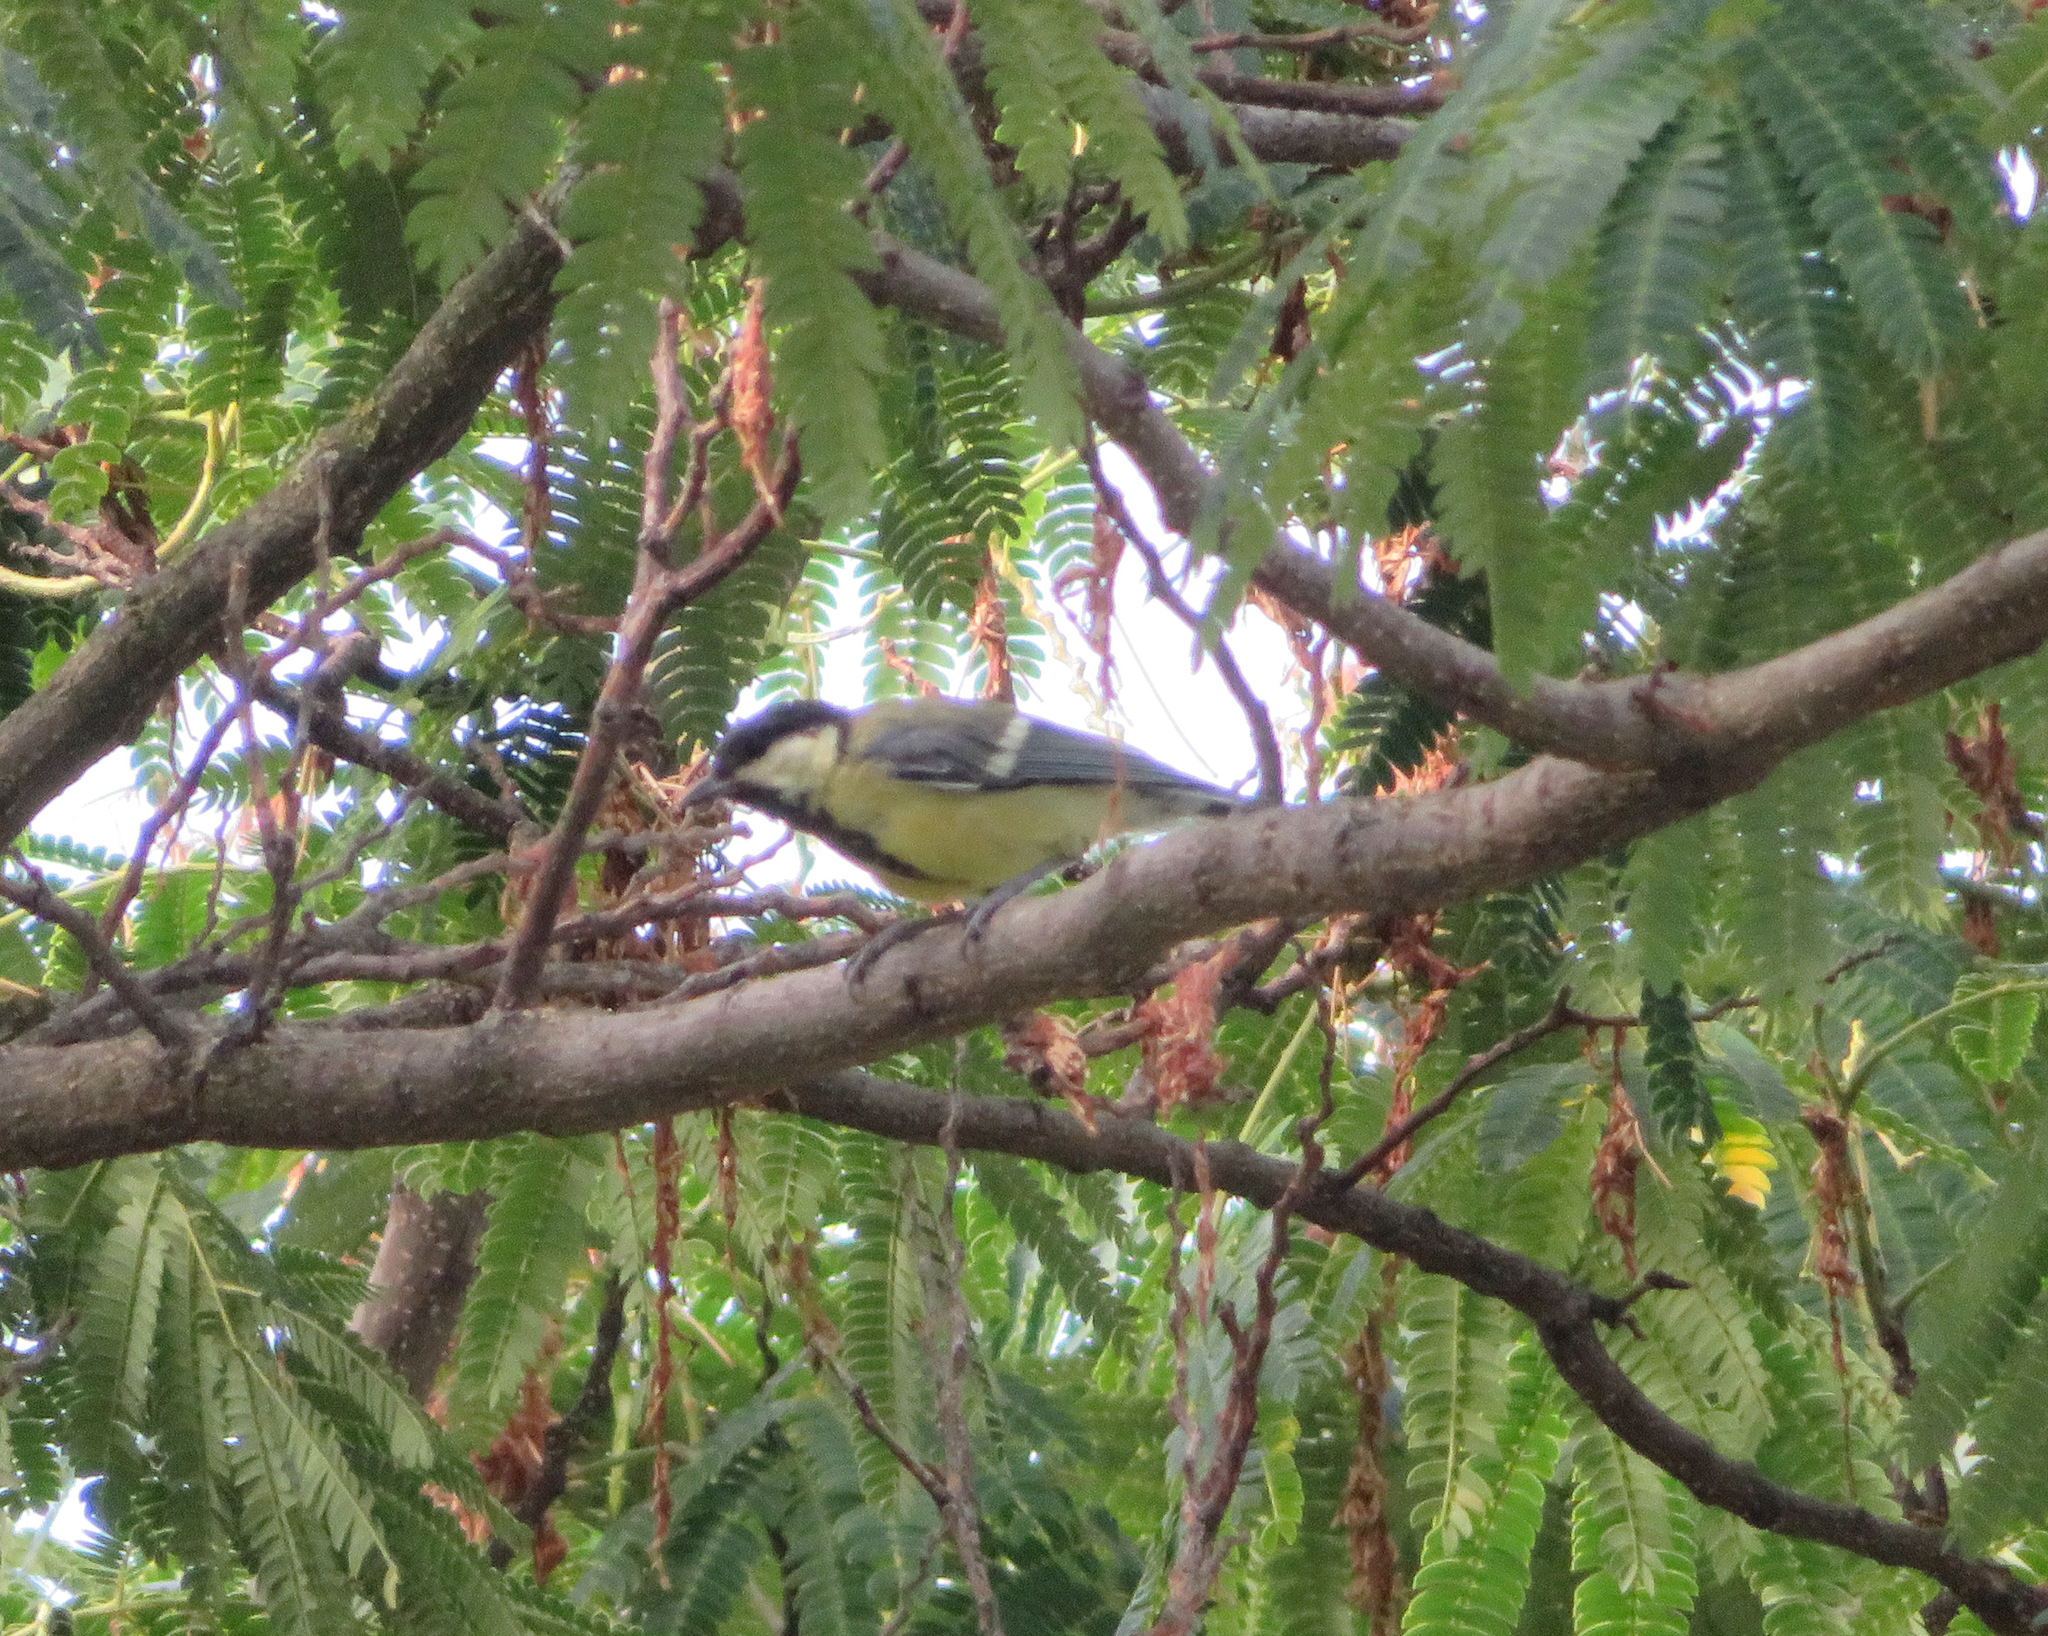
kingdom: Animalia
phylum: Chordata
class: Aves
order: Passeriformes
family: Paridae
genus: Parus
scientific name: Parus major
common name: Great tit
